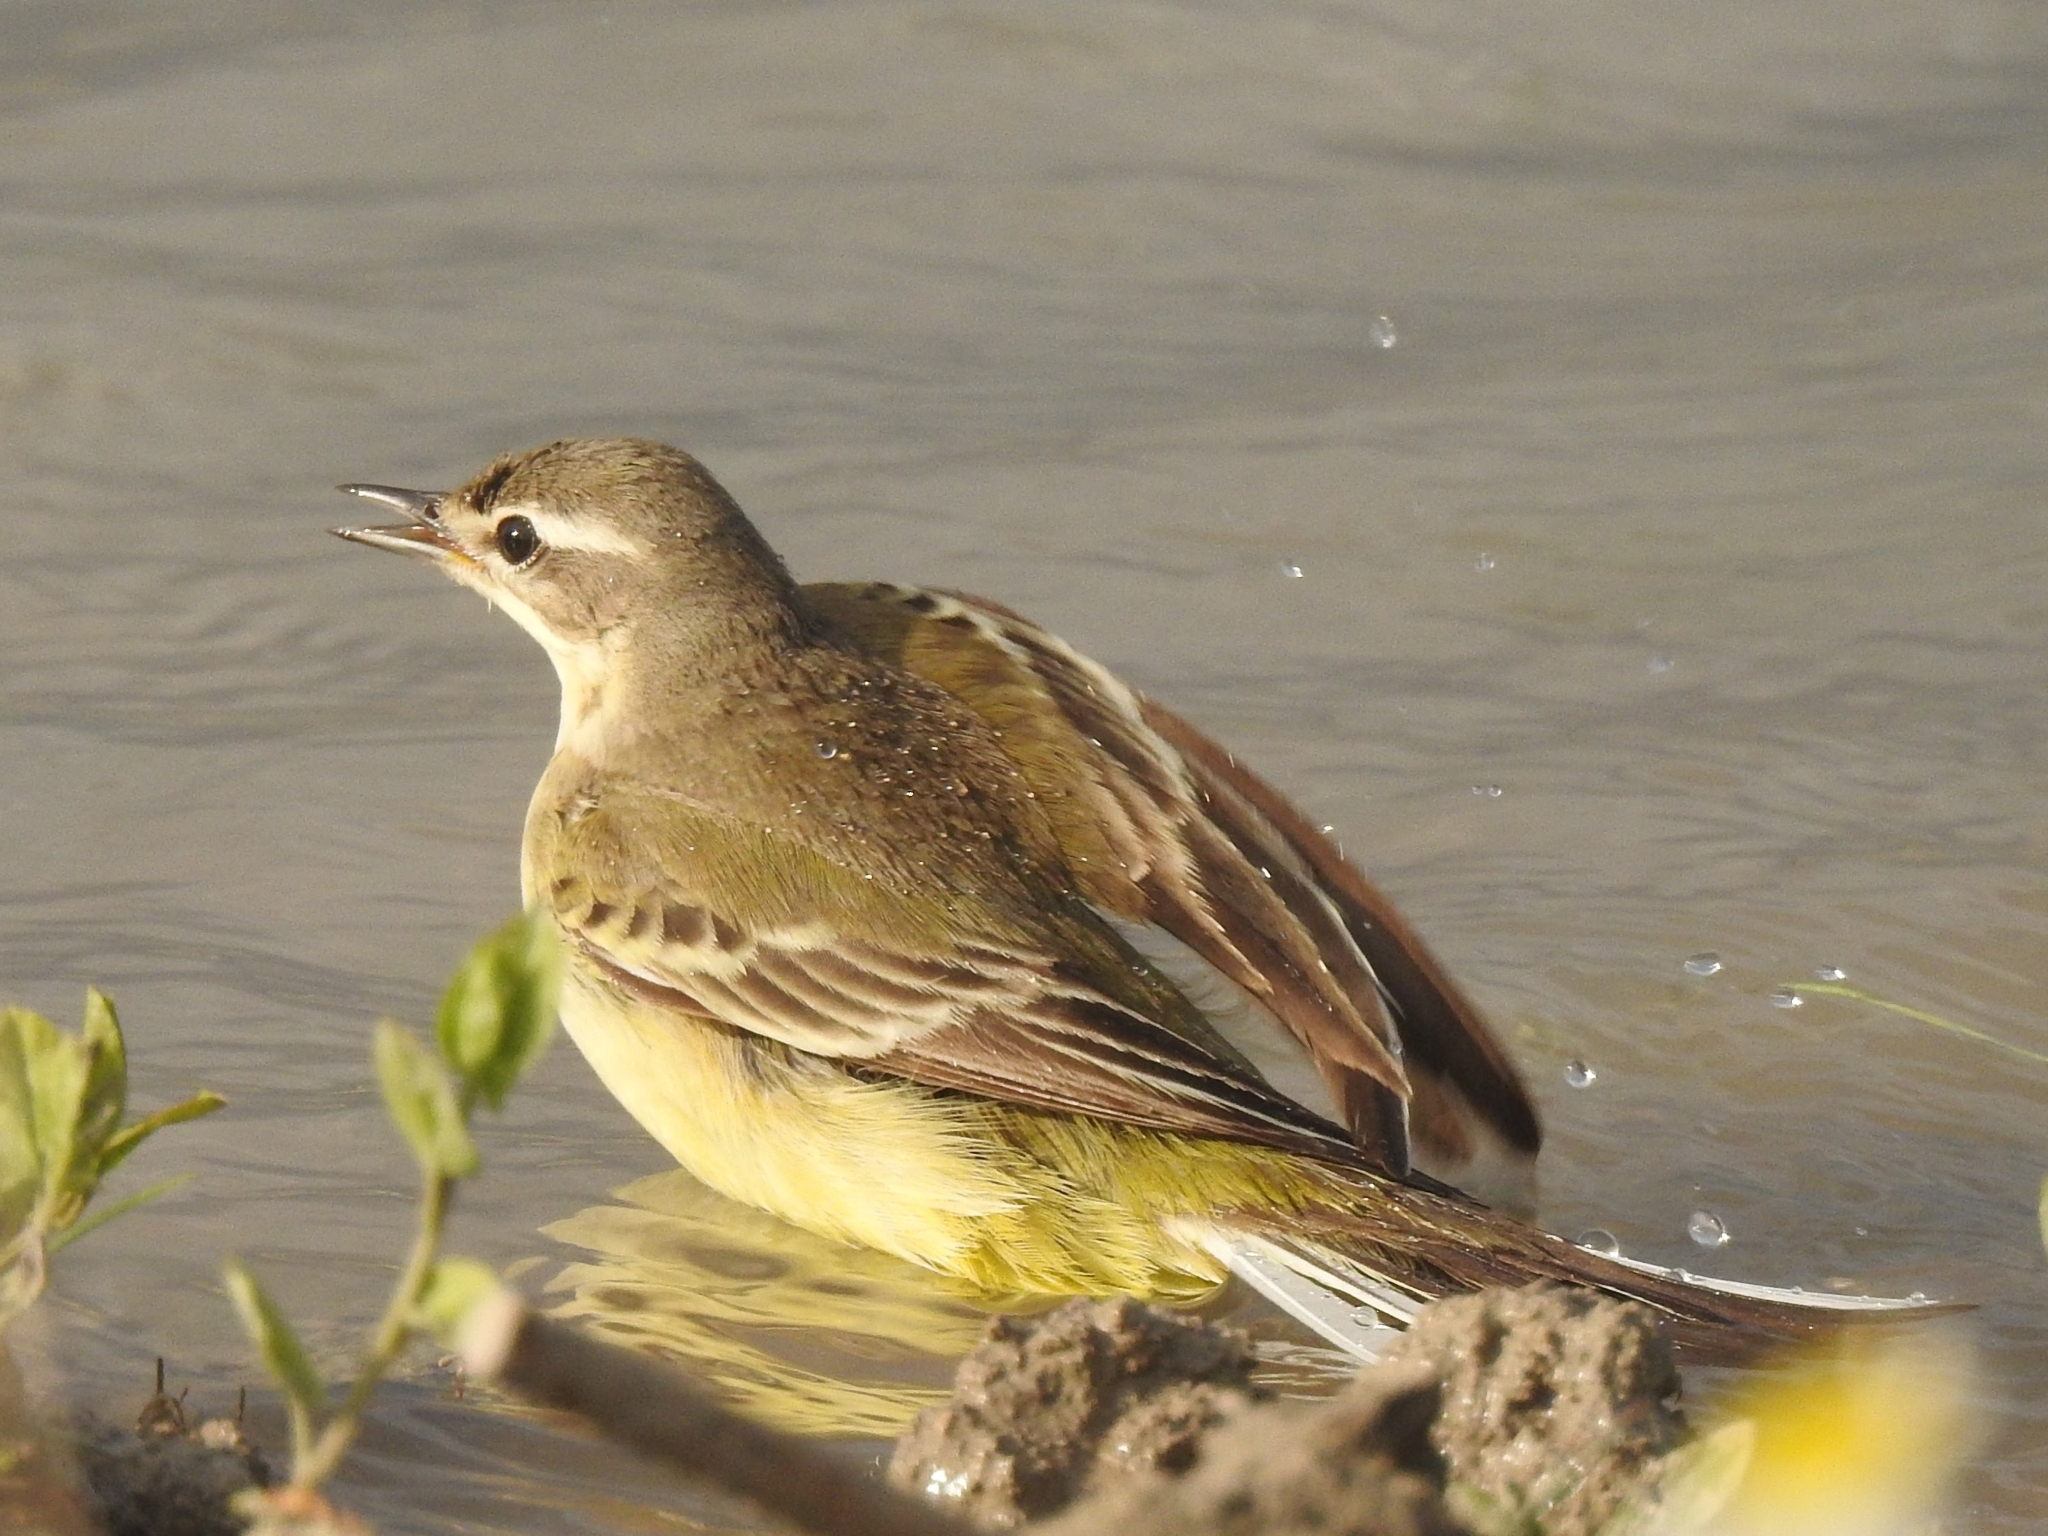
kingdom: Animalia
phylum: Chordata
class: Aves
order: Passeriformes
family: Motacillidae
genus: Motacilla
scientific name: Motacilla flava
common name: Western yellow wagtail
